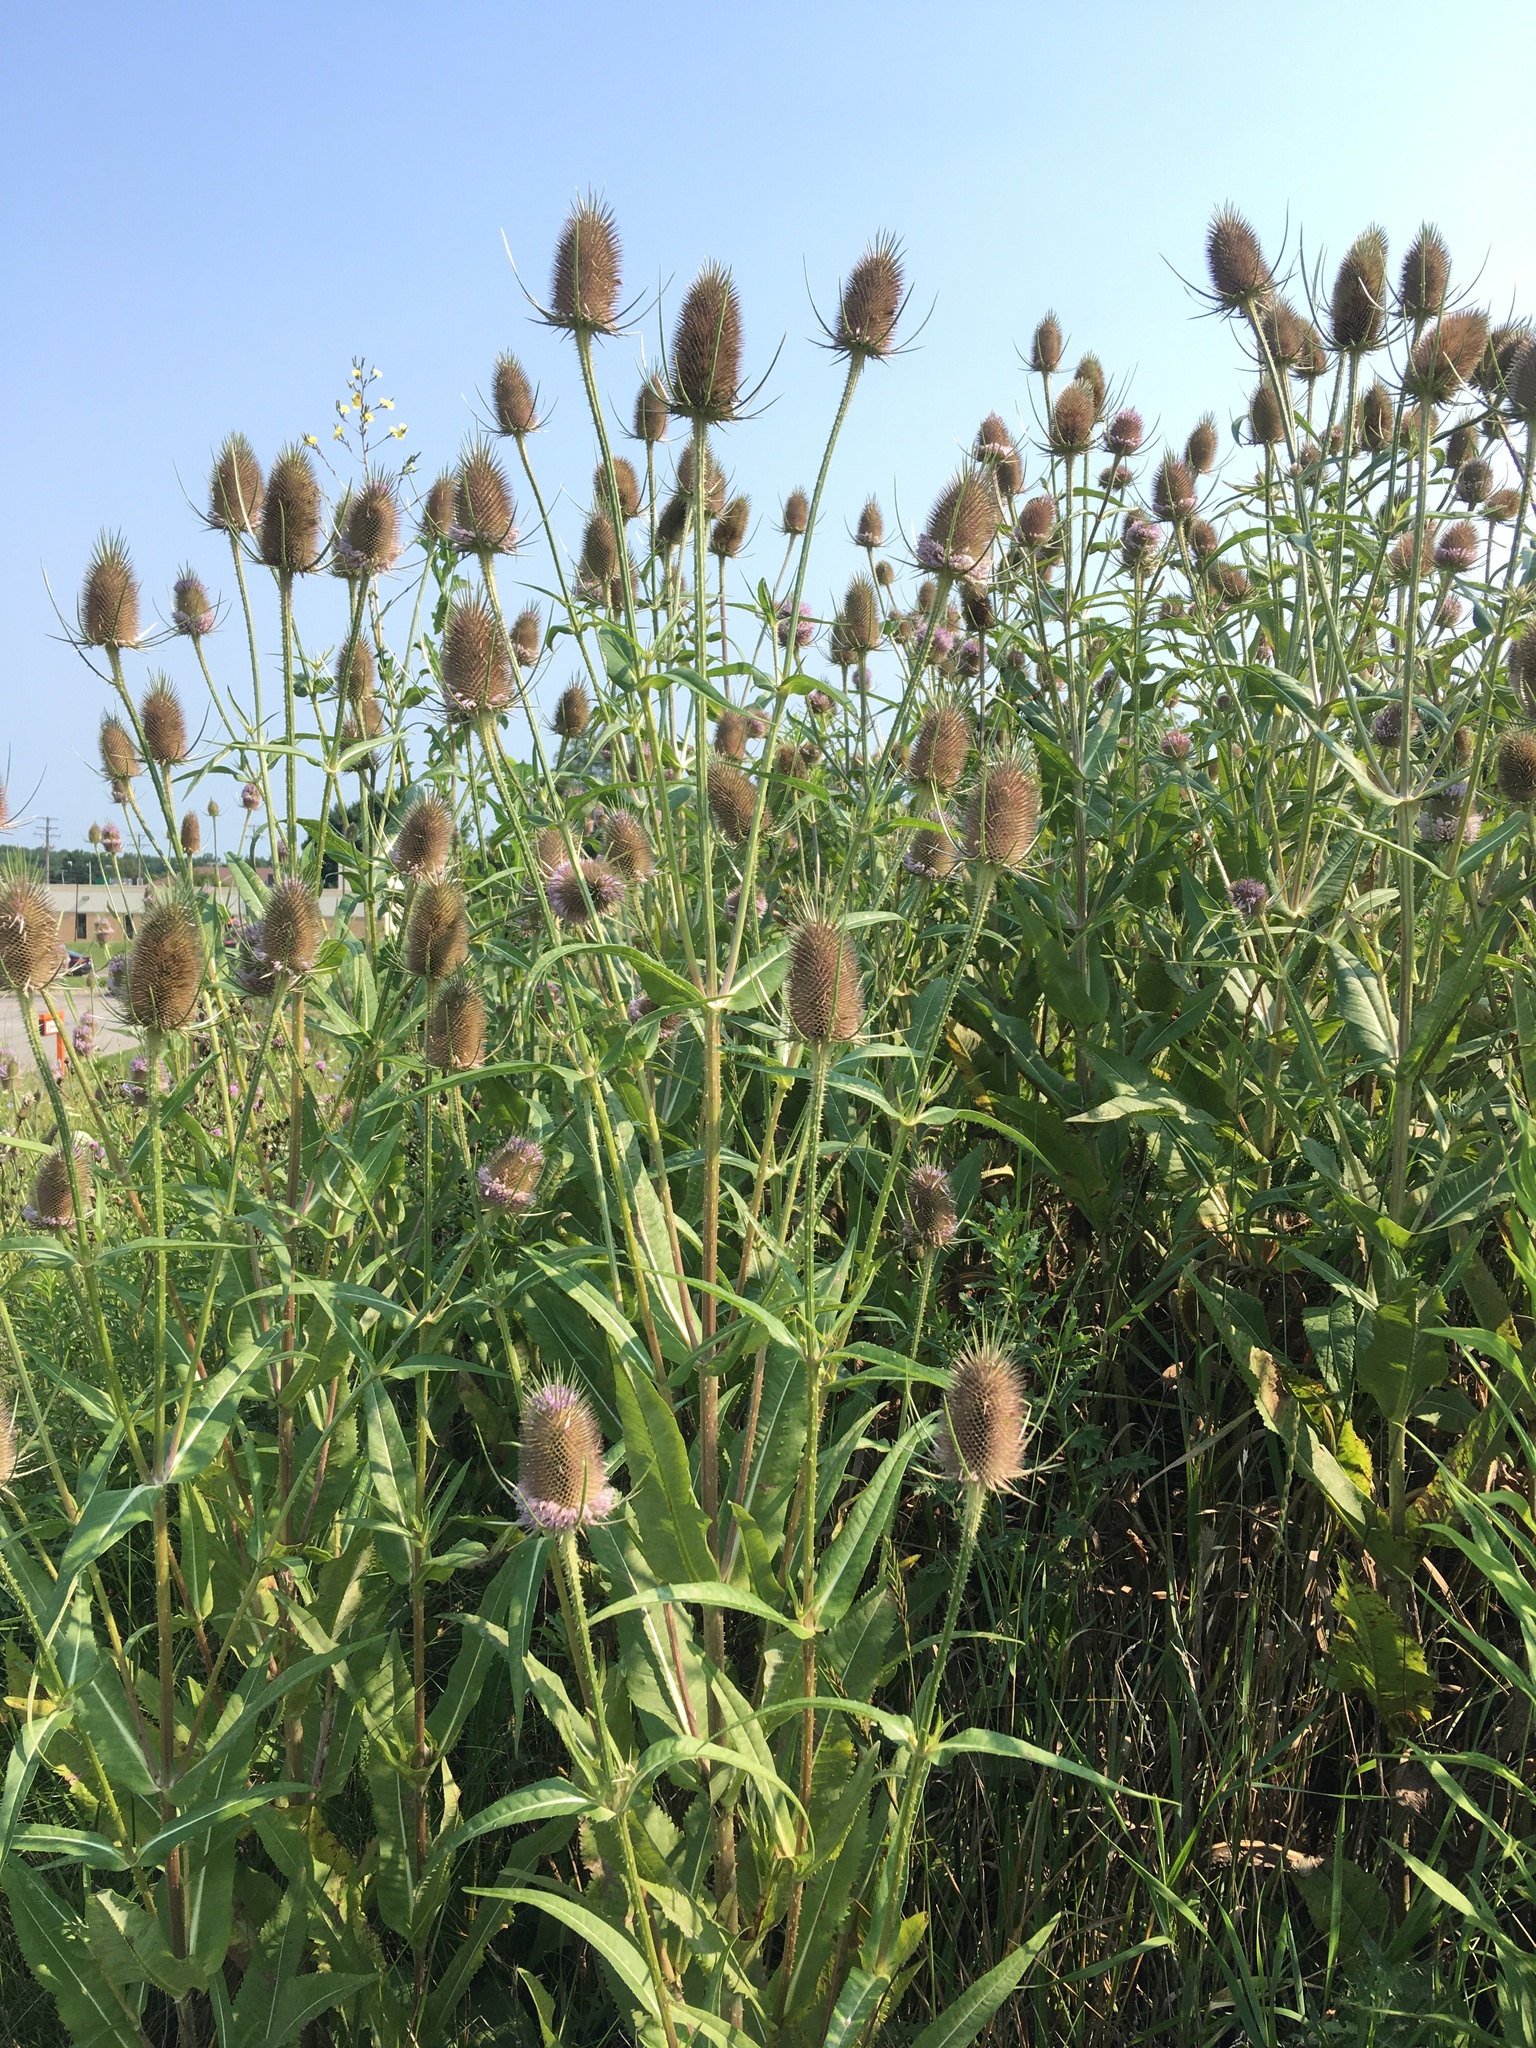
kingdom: Plantae
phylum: Tracheophyta
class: Magnoliopsida
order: Dipsacales
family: Caprifoliaceae
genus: Dipsacus
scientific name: Dipsacus fullonum
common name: Teasel
